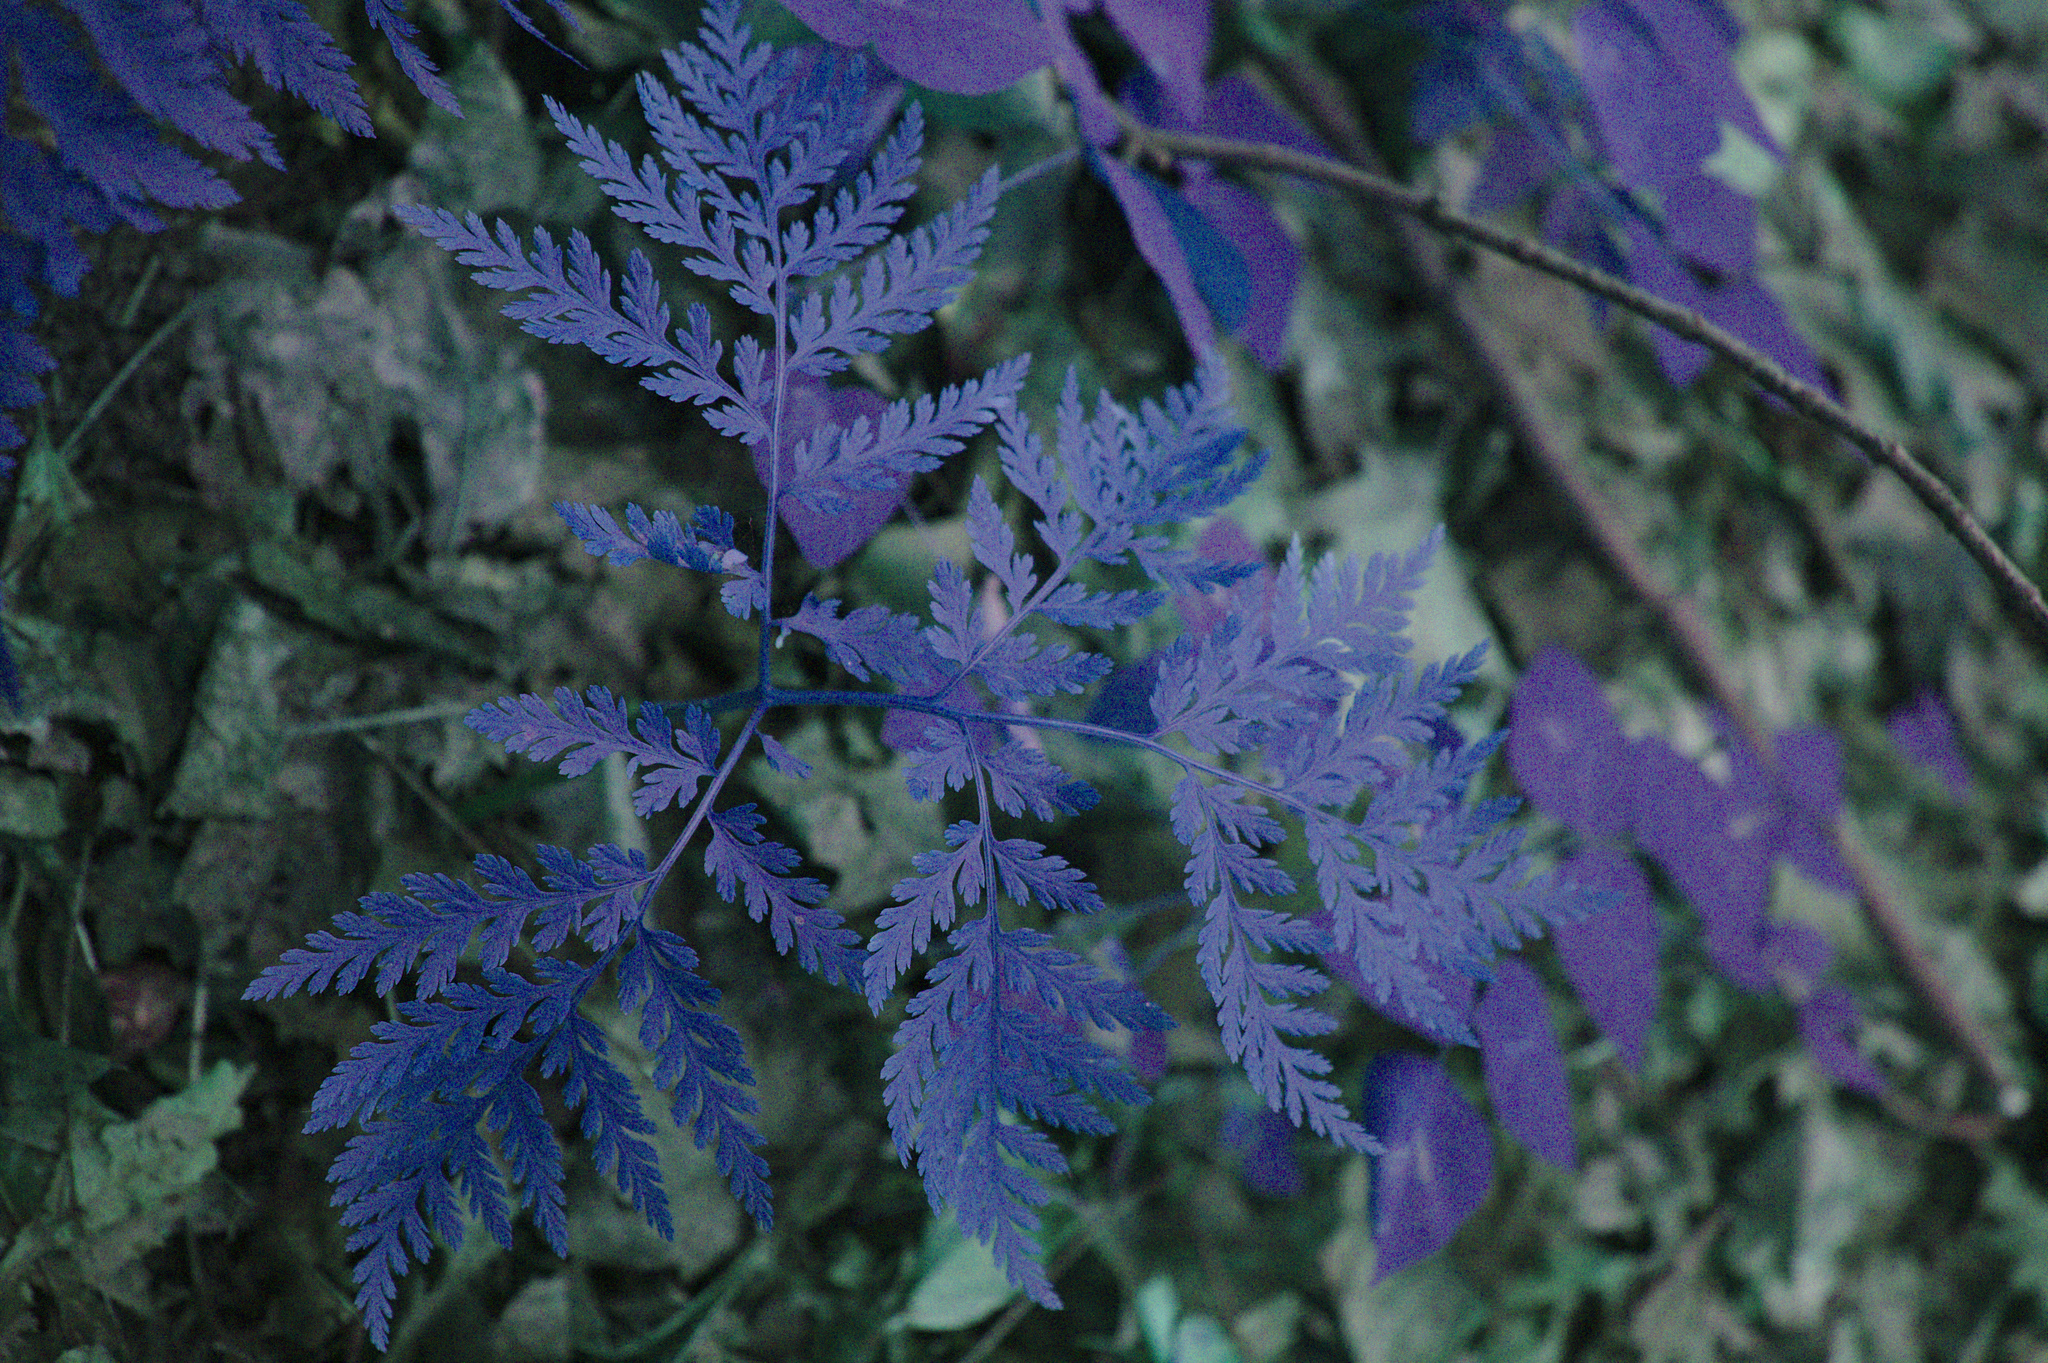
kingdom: Plantae
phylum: Tracheophyta
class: Polypodiopsida
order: Ophioglossales
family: Ophioglossaceae
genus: Botrypus
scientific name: Botrypus virginianus
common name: Common grapefern
